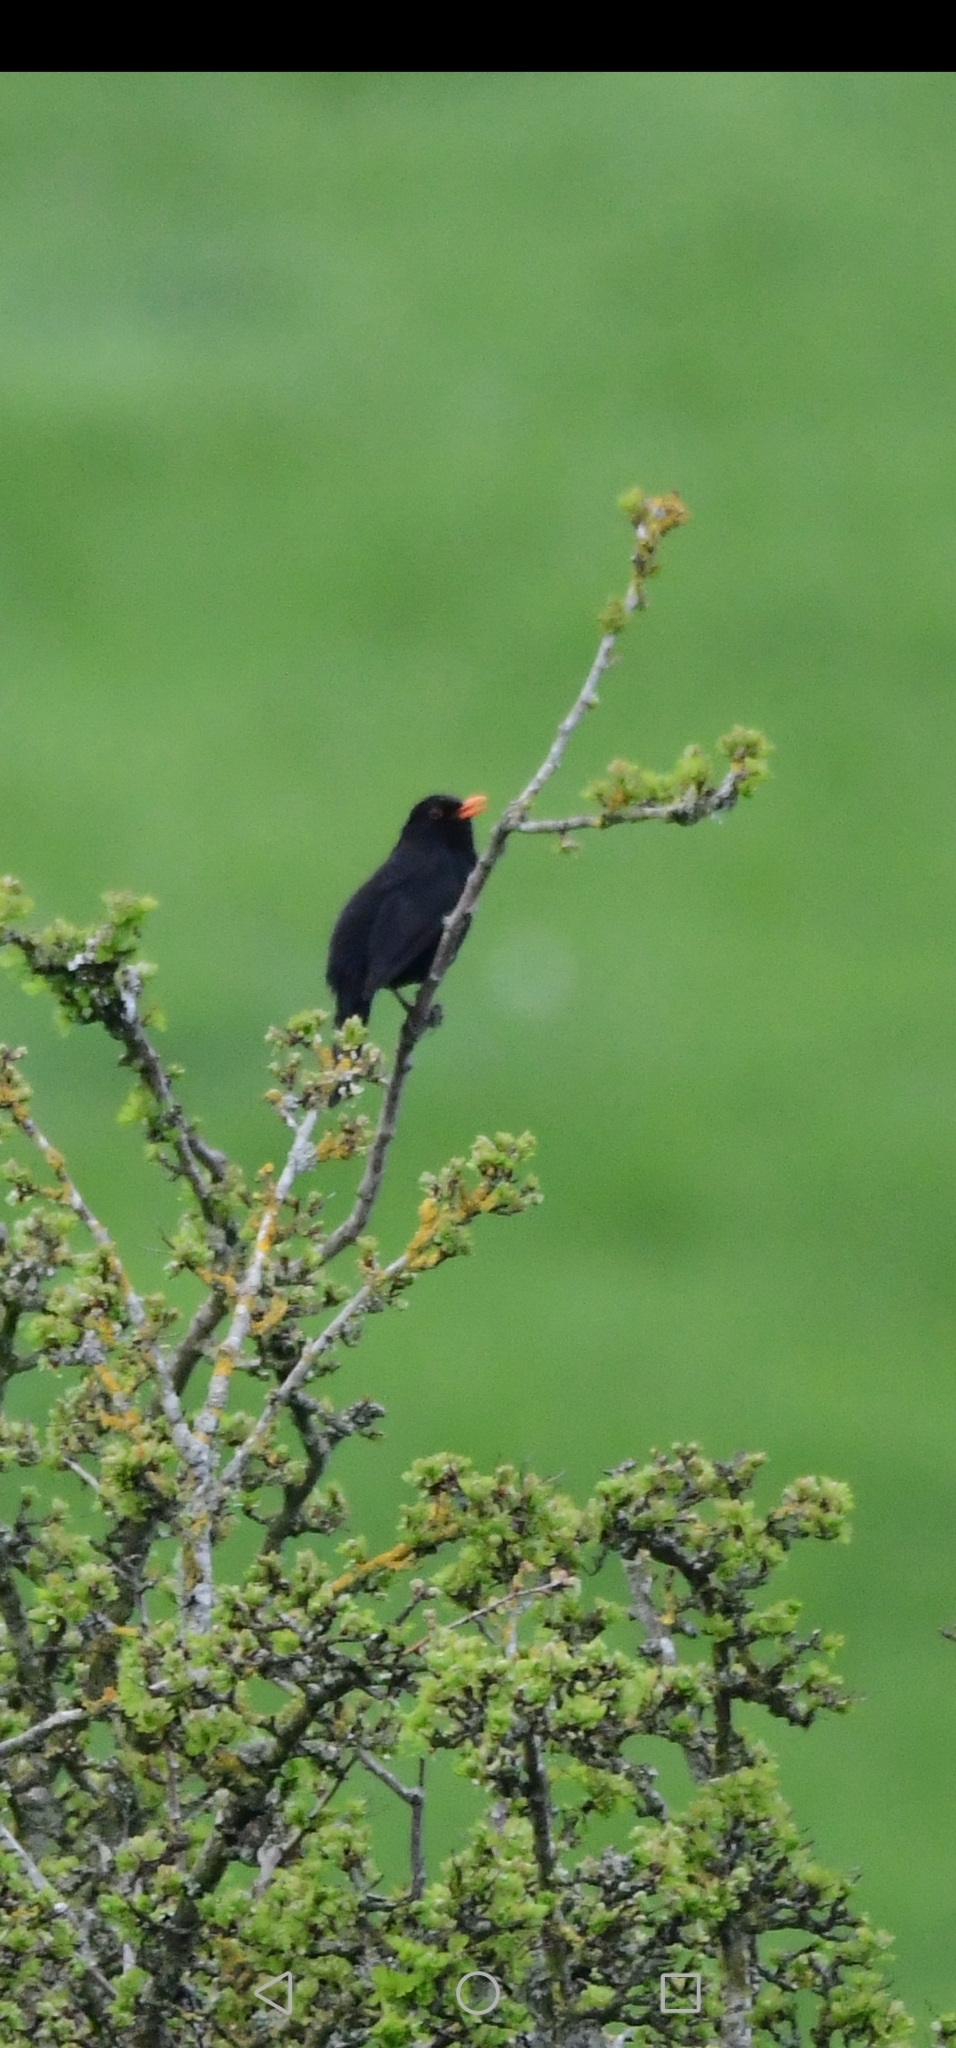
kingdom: Animalia
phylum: Chordata
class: Aves
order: Passeriformes
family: Turdidae
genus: Turdus
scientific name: Turdus merula
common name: Common blackbird
